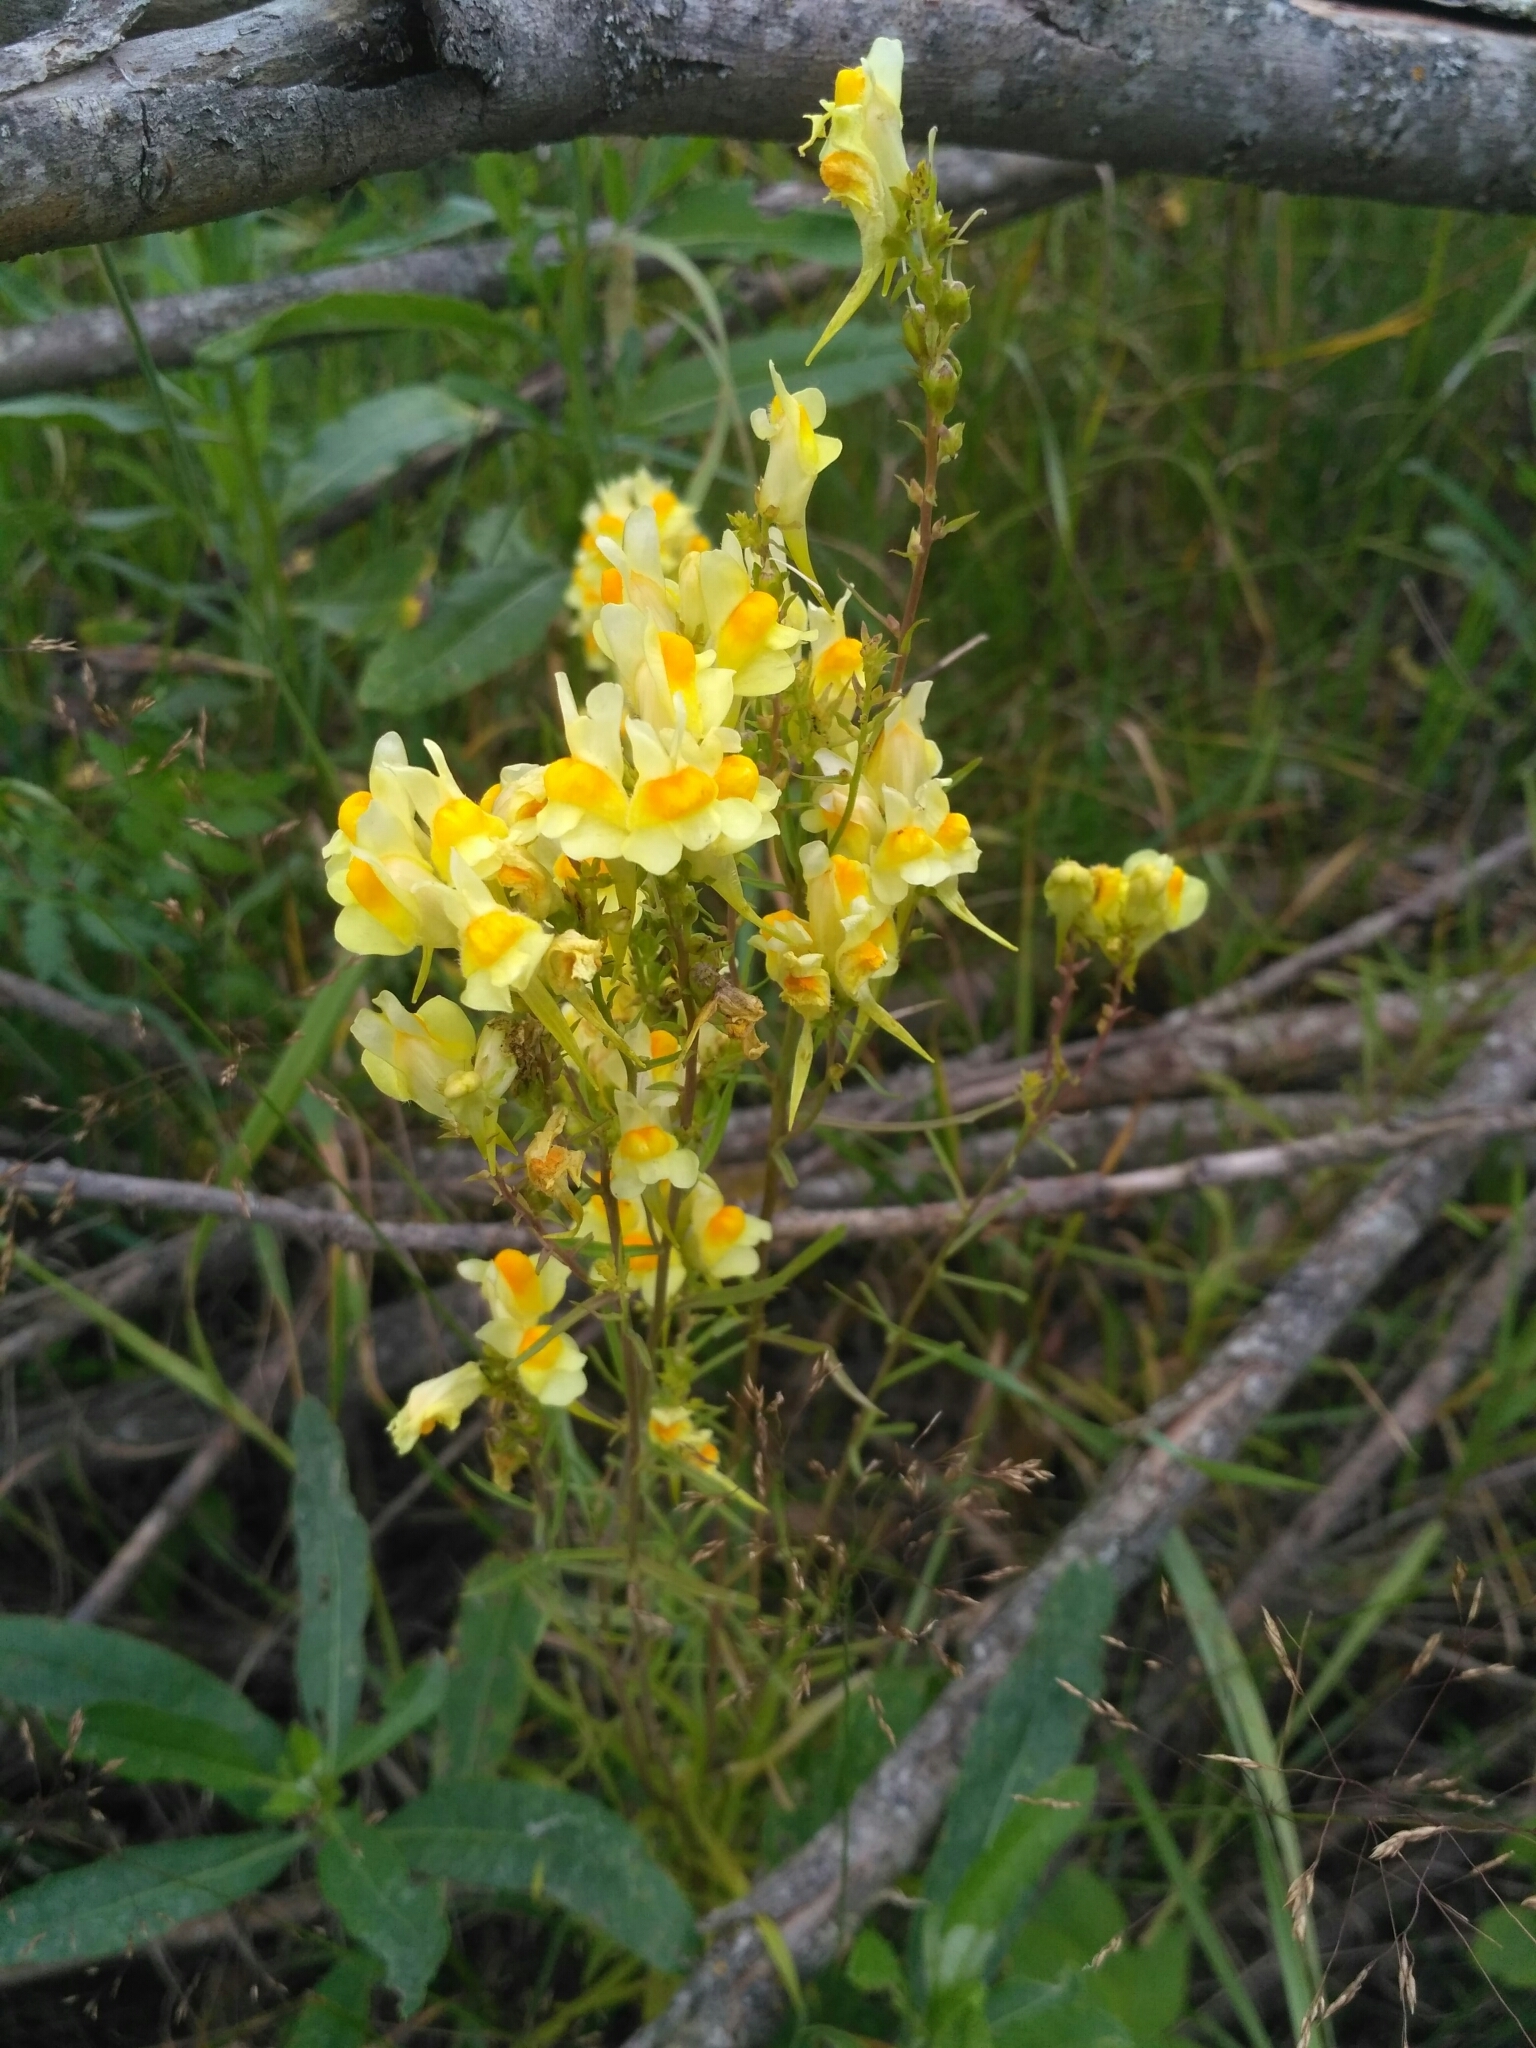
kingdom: Plantae
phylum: Tracheophyta
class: Magnoliopsida
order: Lamiales
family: Plantaginaceae
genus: Linaria
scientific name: Linaria vulgaris
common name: Butter and eggs
